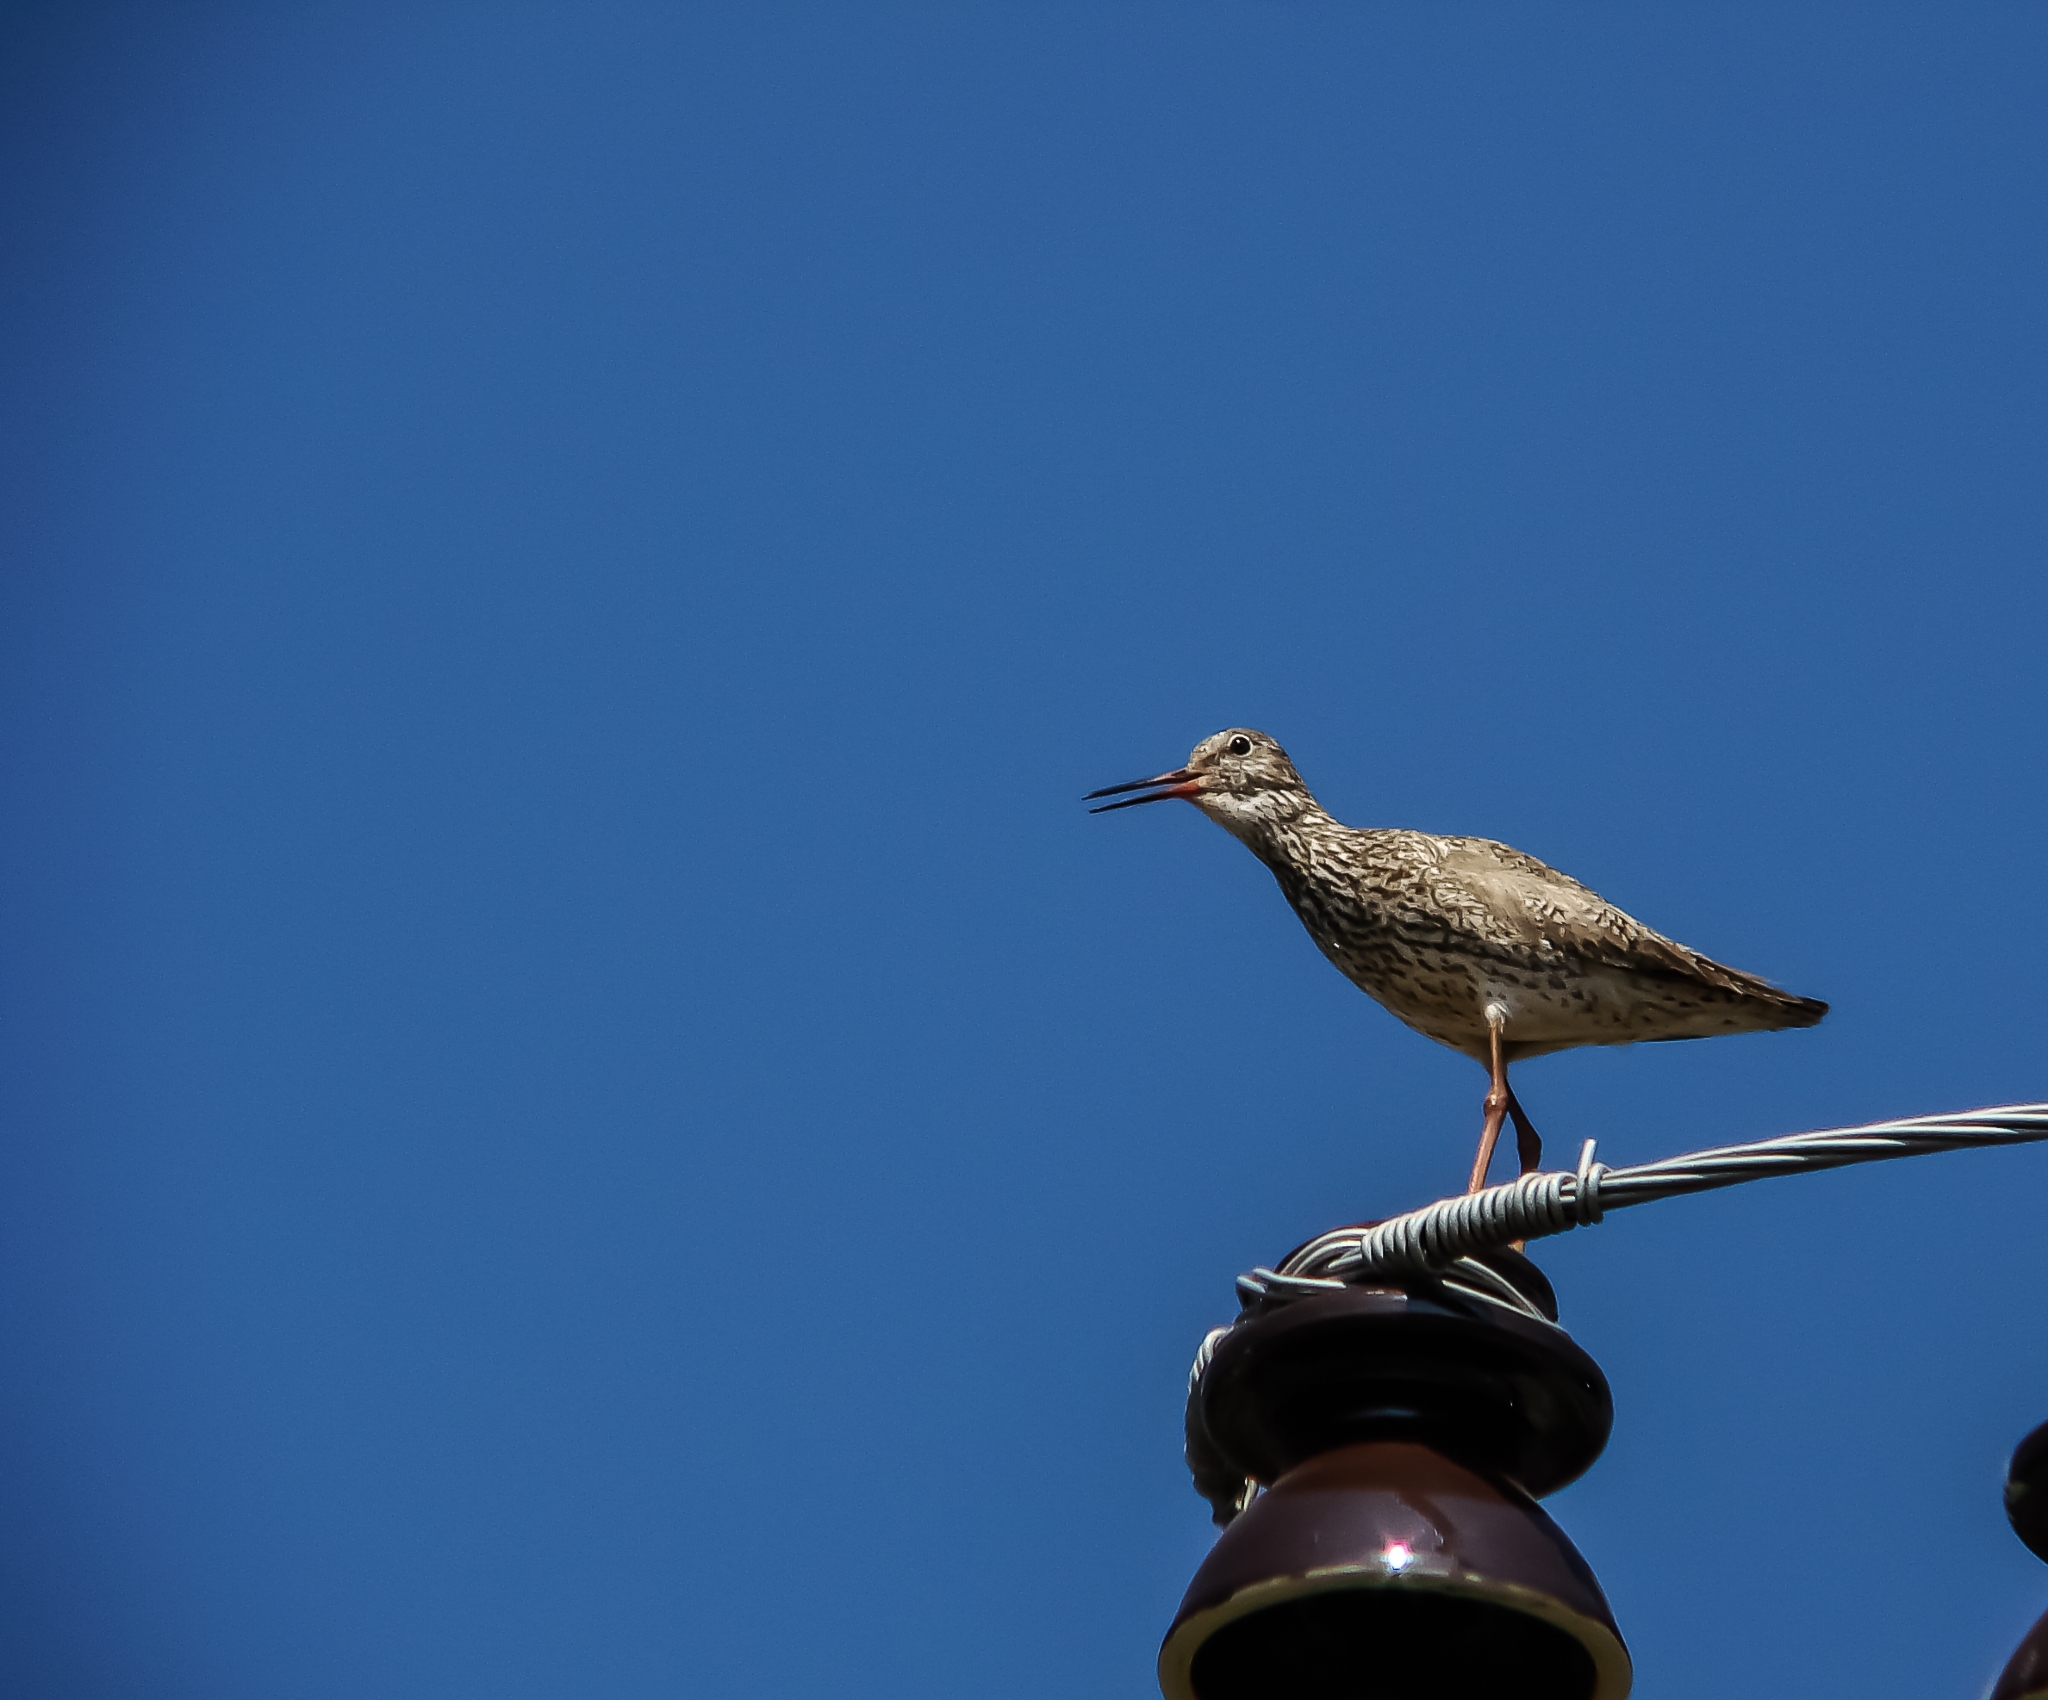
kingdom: Animalia
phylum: Chordata
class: Aves
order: Charadriiformes
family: Scolopacidae
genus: Tringa
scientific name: Tringa totanus
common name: Common redshank
